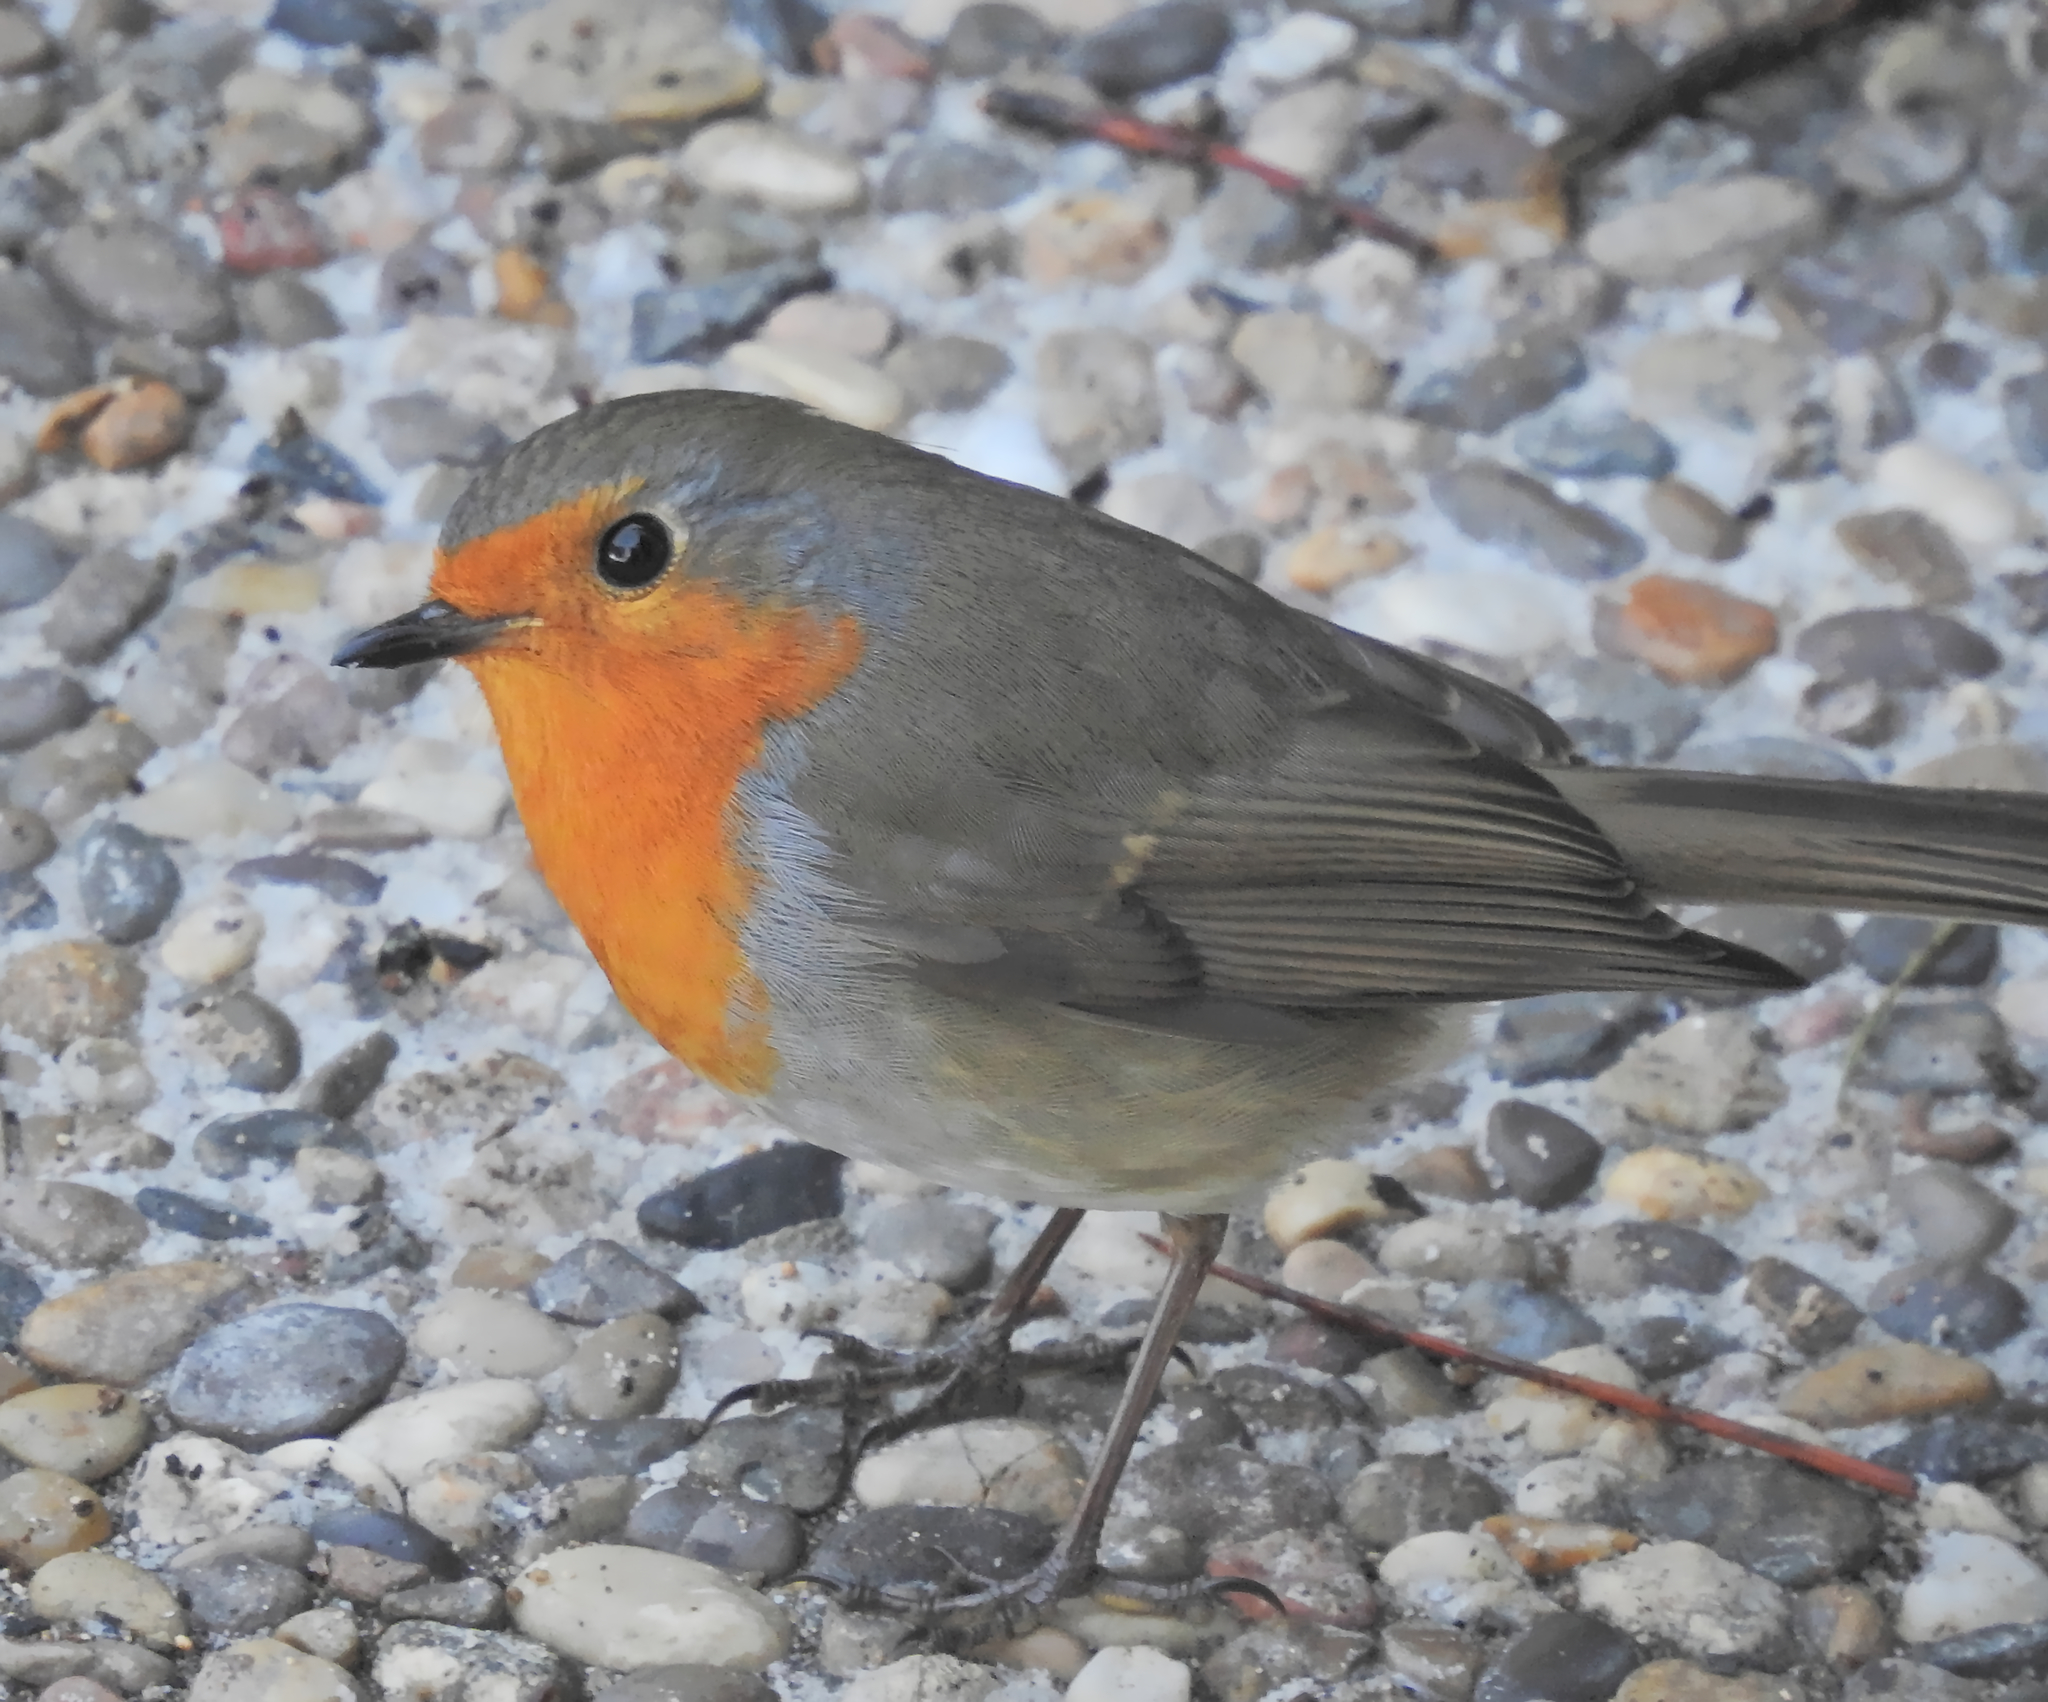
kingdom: Animalia
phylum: Chordata
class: Aves
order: Passeriformes
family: Muscicapidae
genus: Erithacus
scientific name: Erithacus rubecula
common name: European robin
